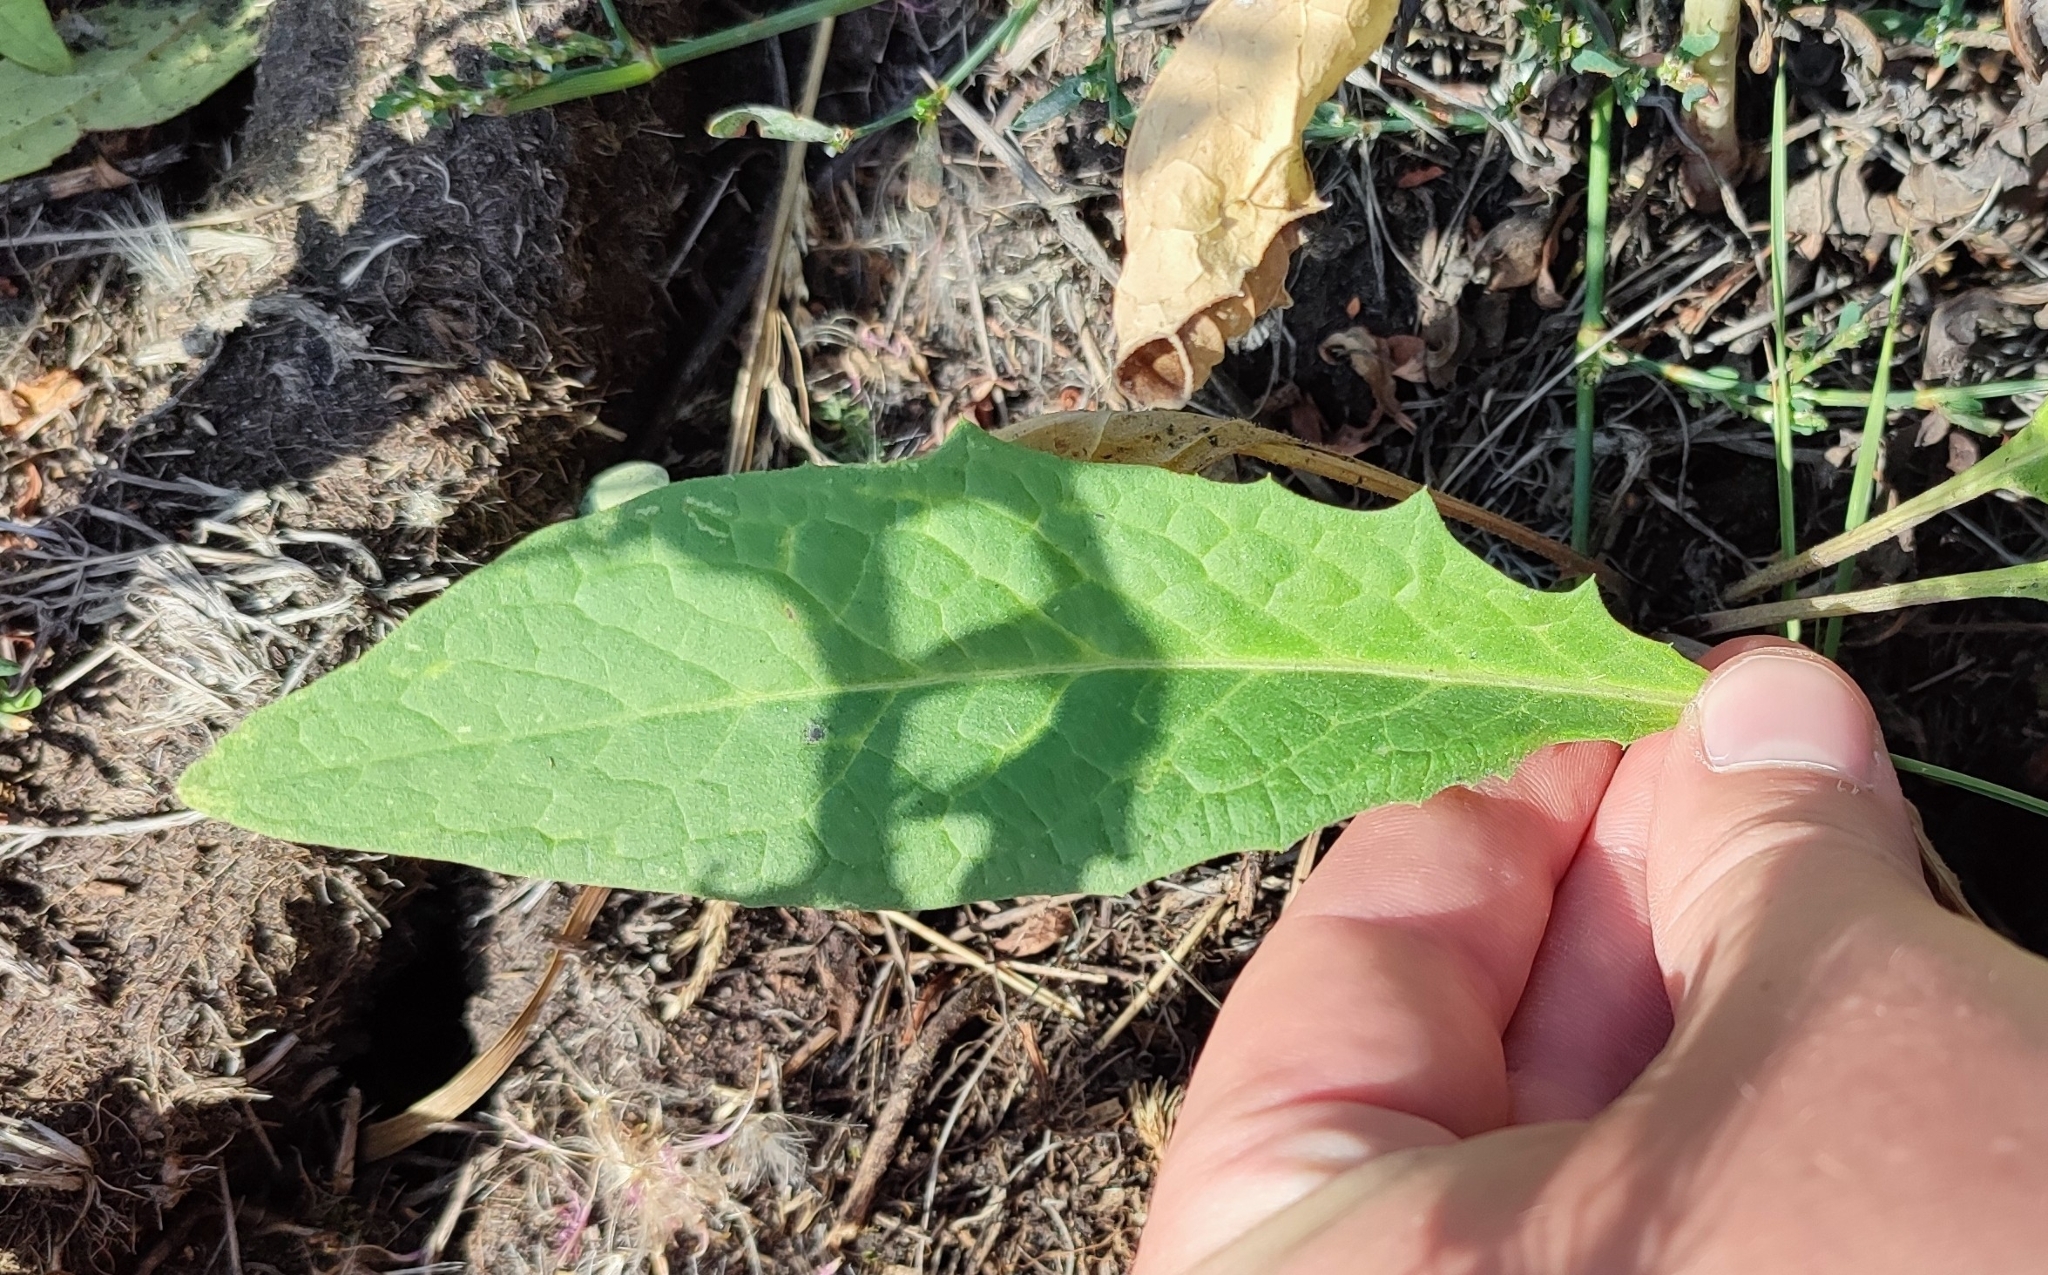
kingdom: Plantae
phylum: Tracheophyta
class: Magnoliopsida
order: Asterales
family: Asteraceae
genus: Saussurea
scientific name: Saussurea amara
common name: Alberta sawwort
